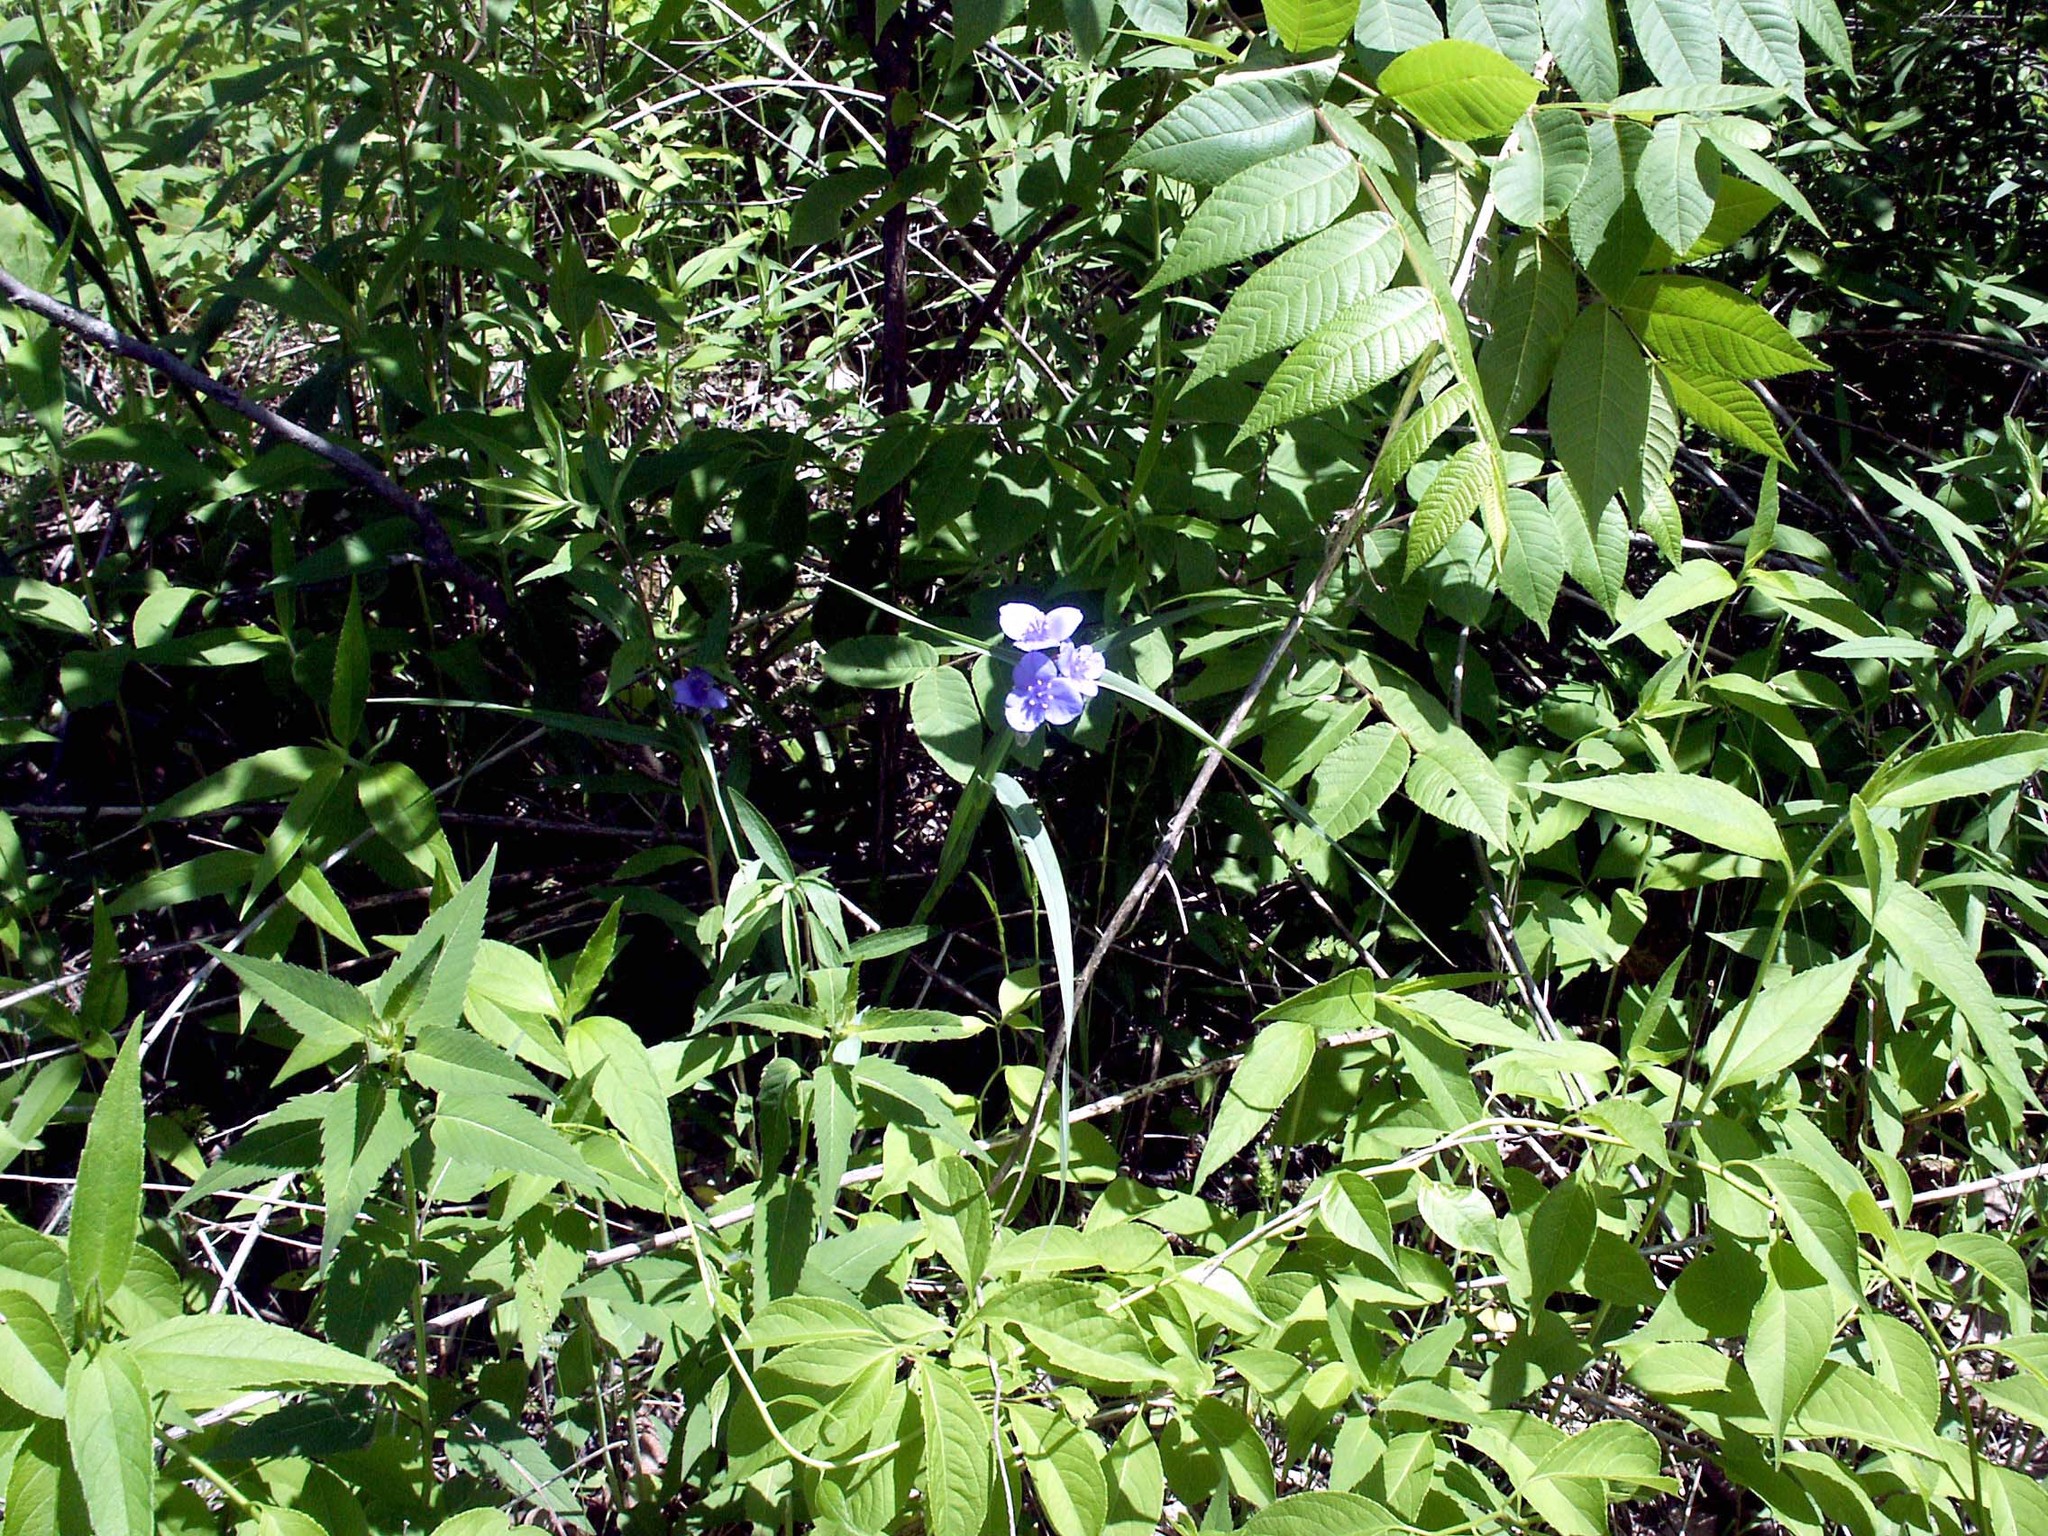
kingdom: Plantae
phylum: Tracheophyta
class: Liliopsida
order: Commelinales
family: Commelinaceae
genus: Tradescantia
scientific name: Tradescantia ohiensis
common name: Ohio spiderwort
